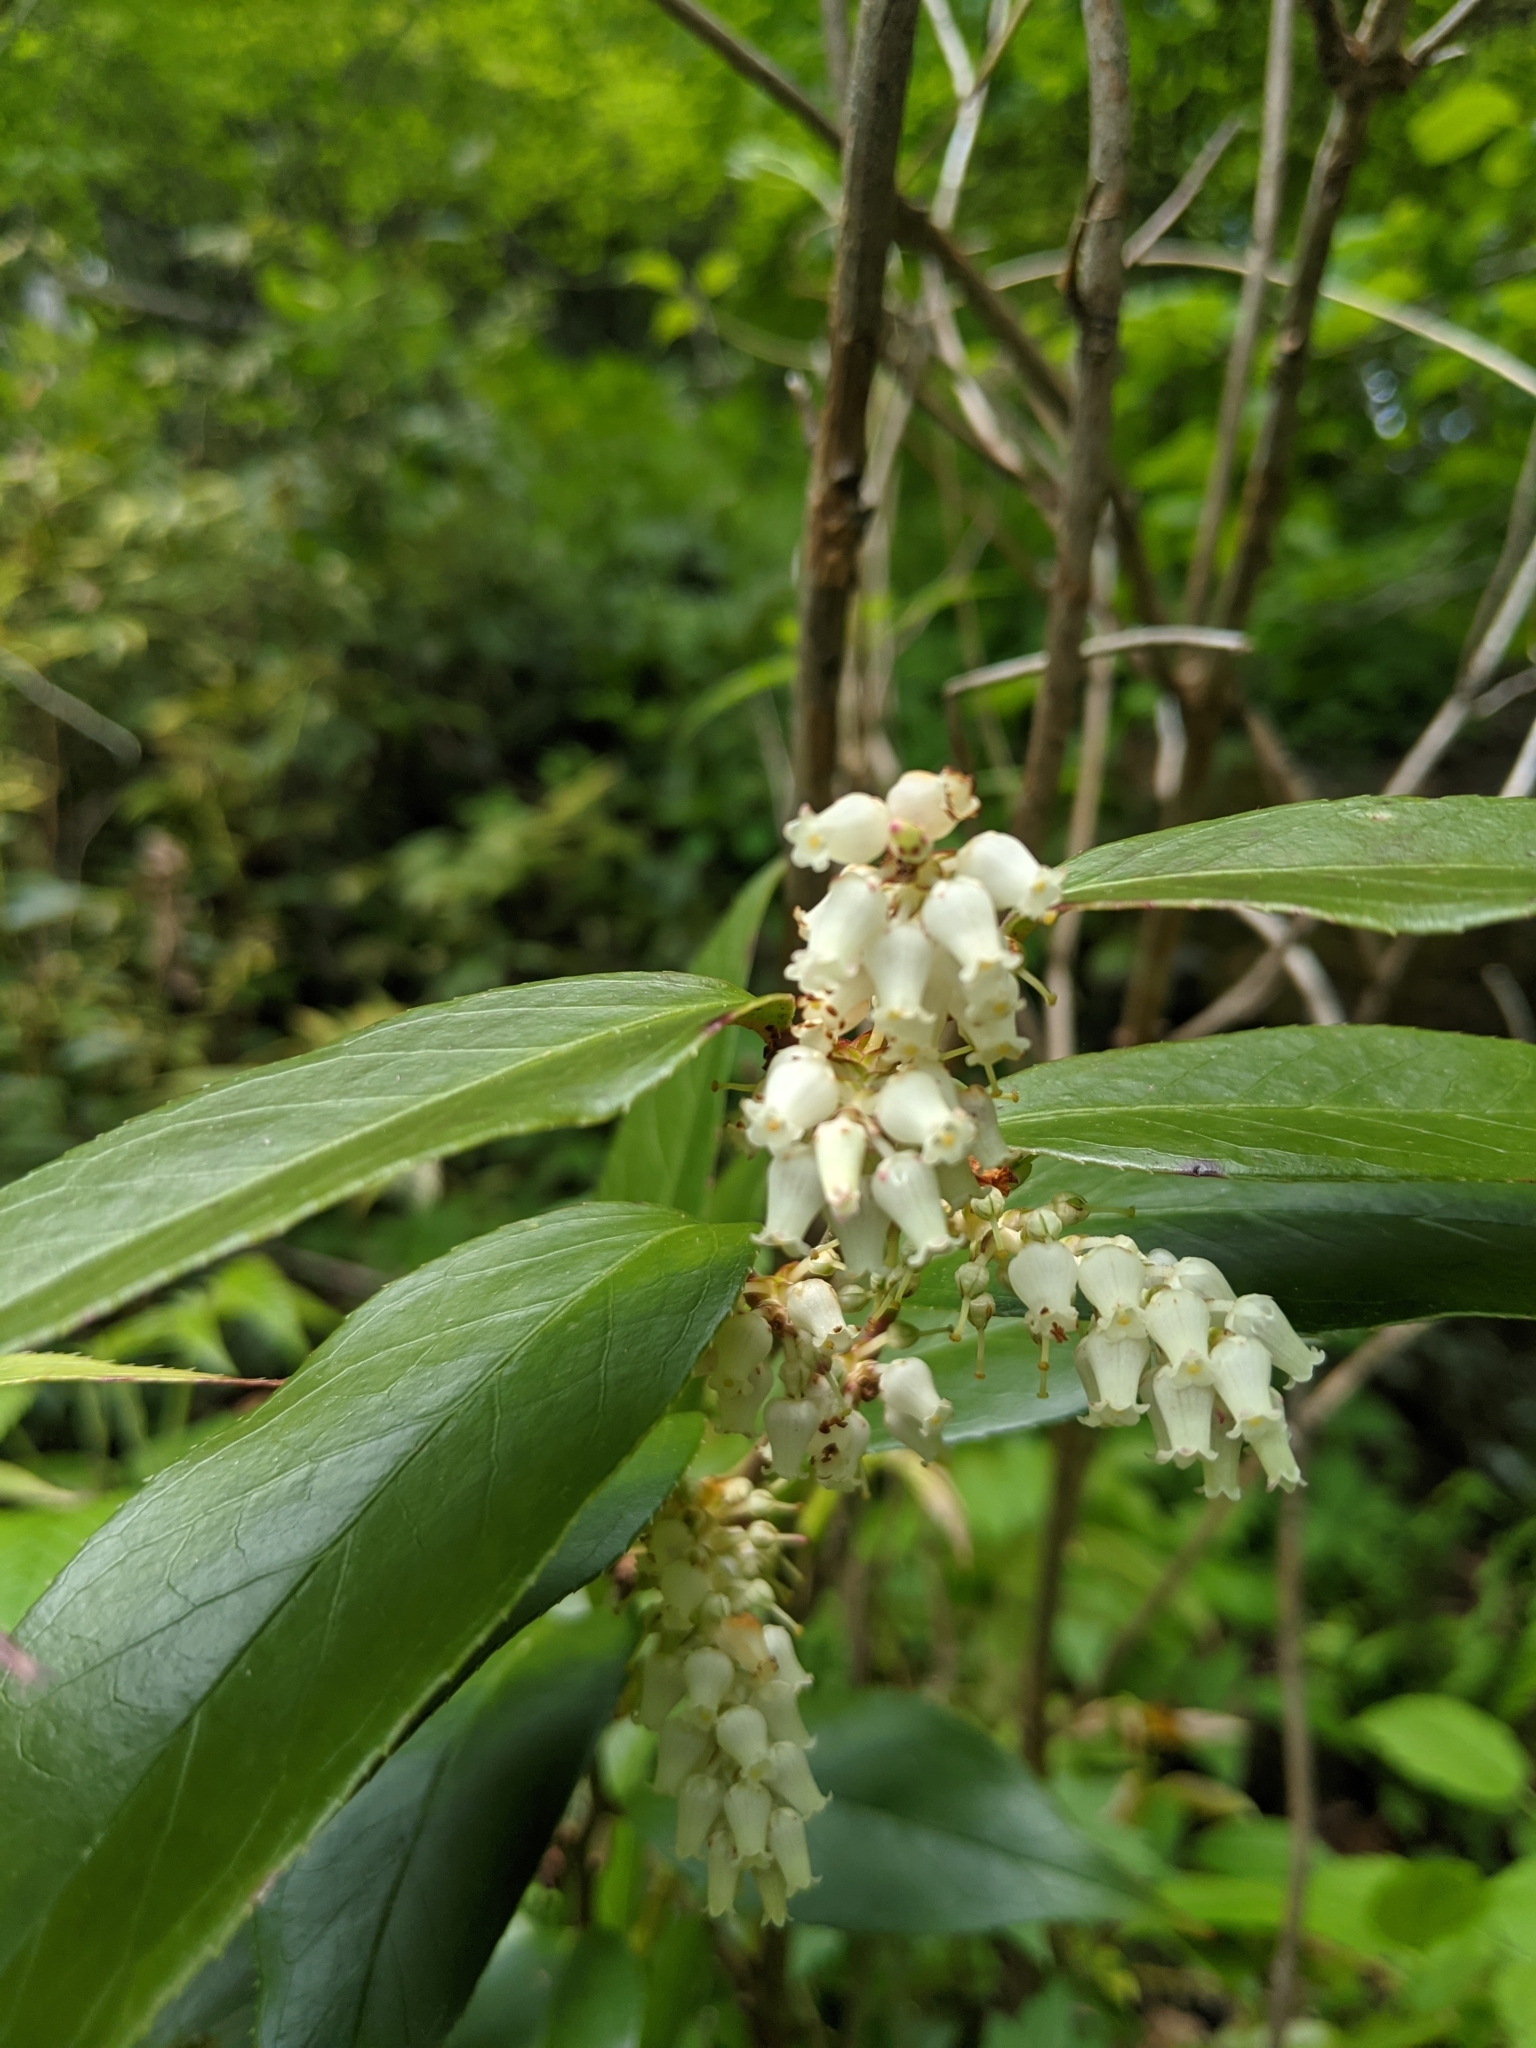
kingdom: Plantae
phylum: Tracheophyta
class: Magnoliopsida
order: Ericales
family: Ericaceae
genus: Leucothoe
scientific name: Leucothoe fontanesiana
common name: Fetterbush
